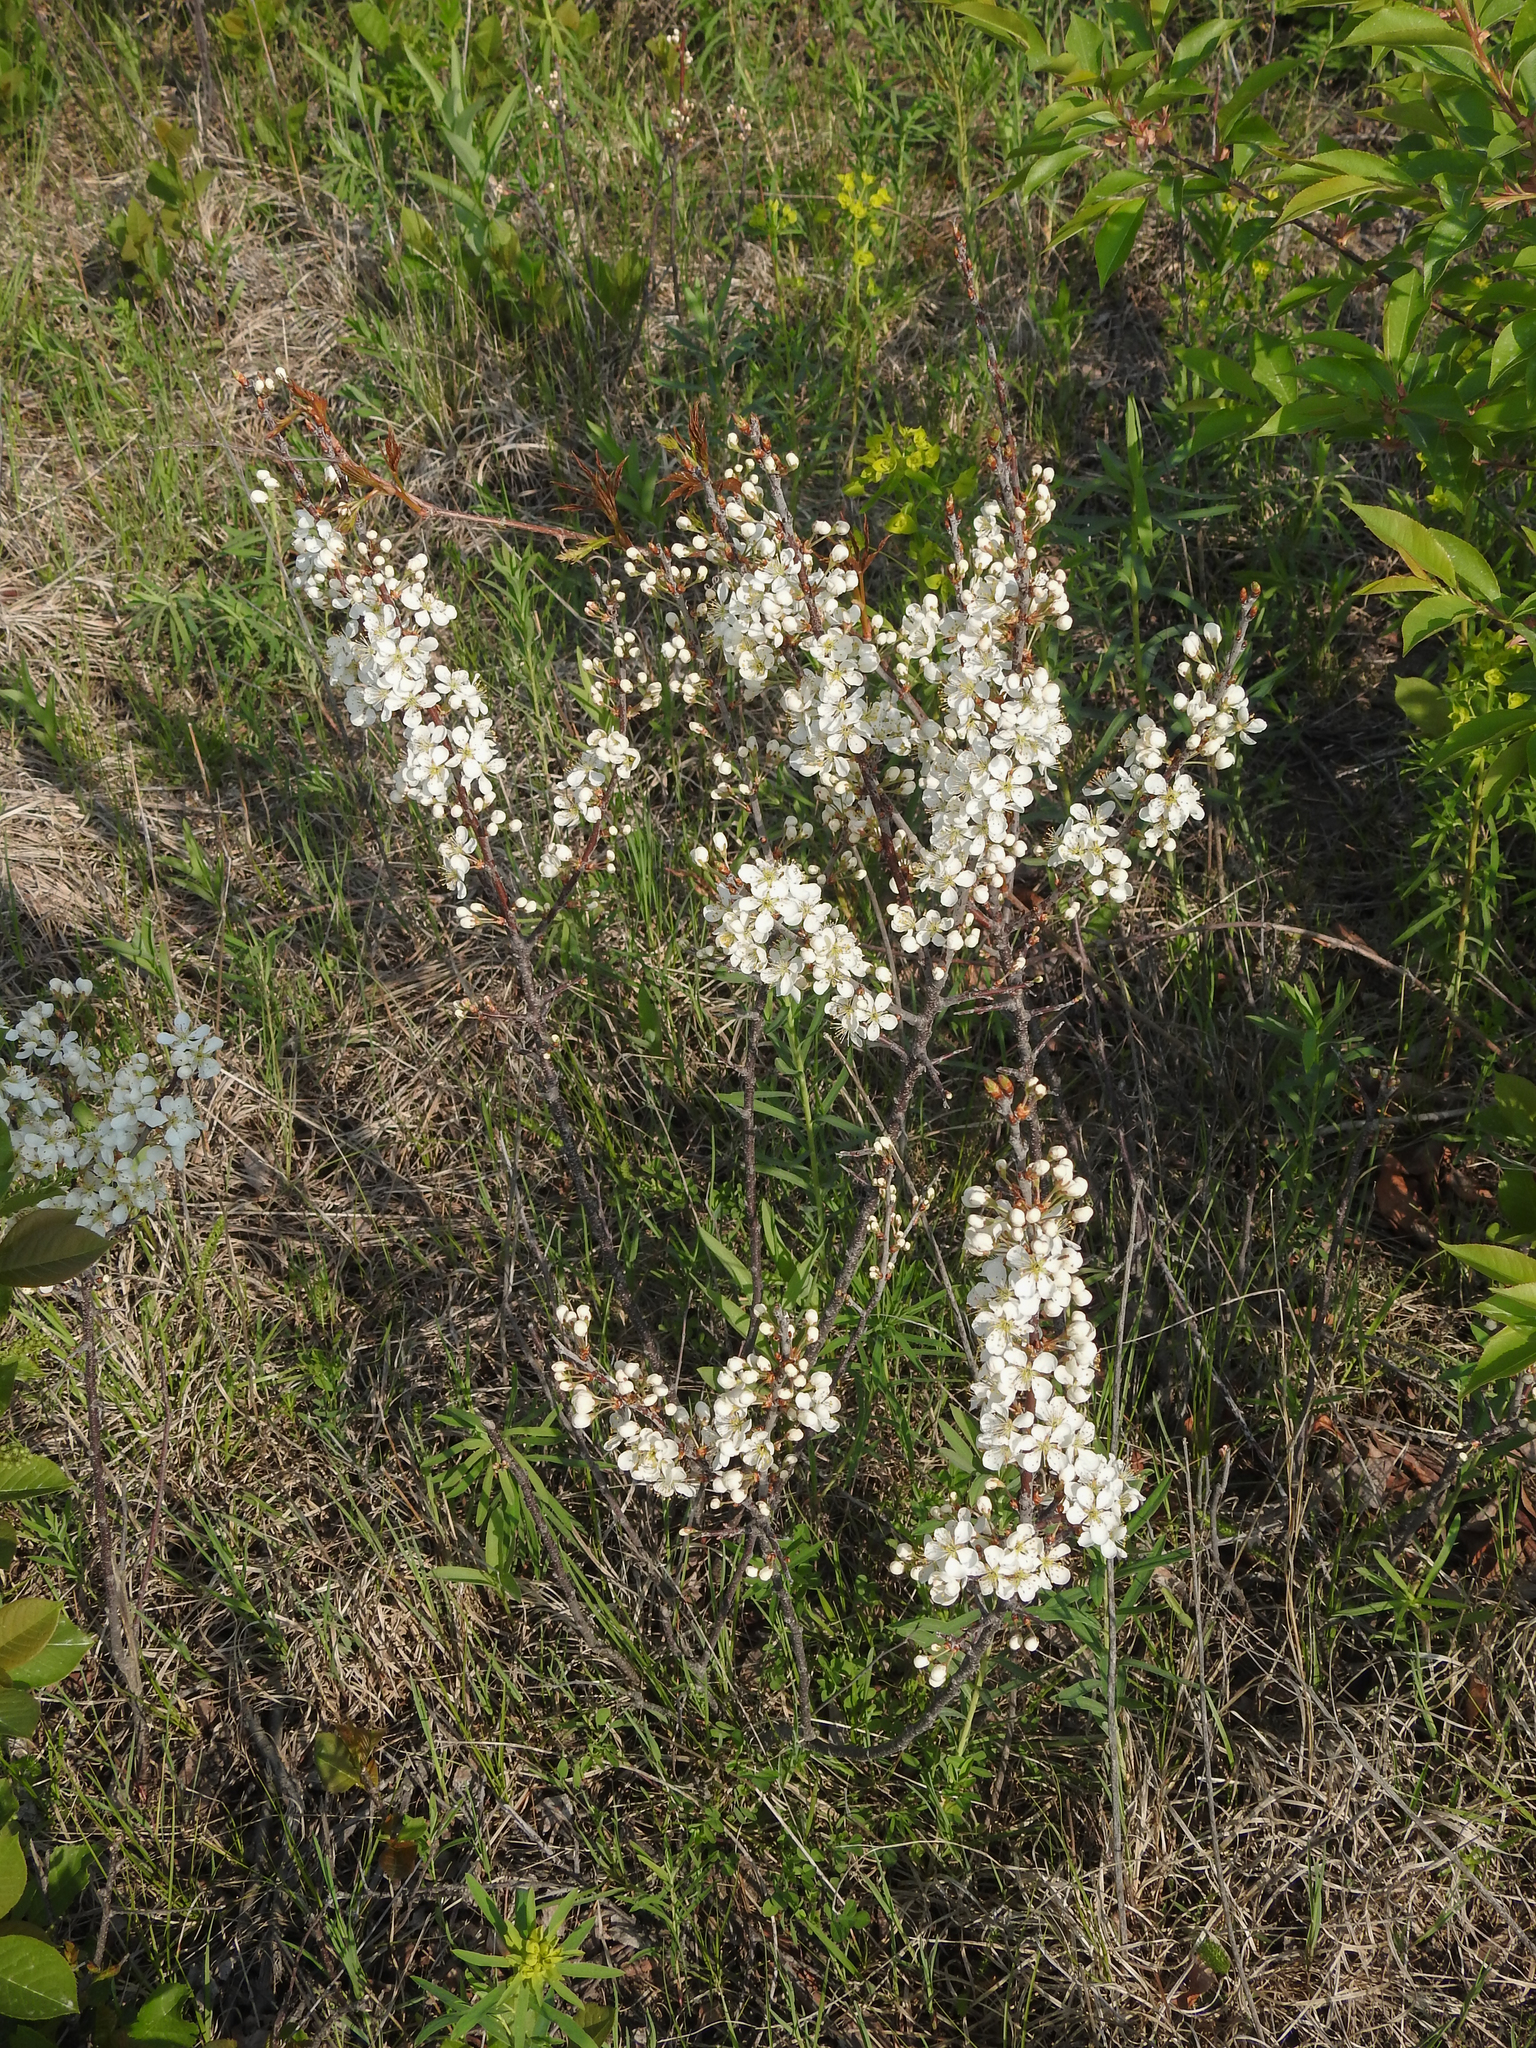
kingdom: Plantae
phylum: Tracheophyta
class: Magnoliopsida
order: Rosales
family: Rosaceae
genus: Prunus
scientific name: Prunus maritima
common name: Beach plum
